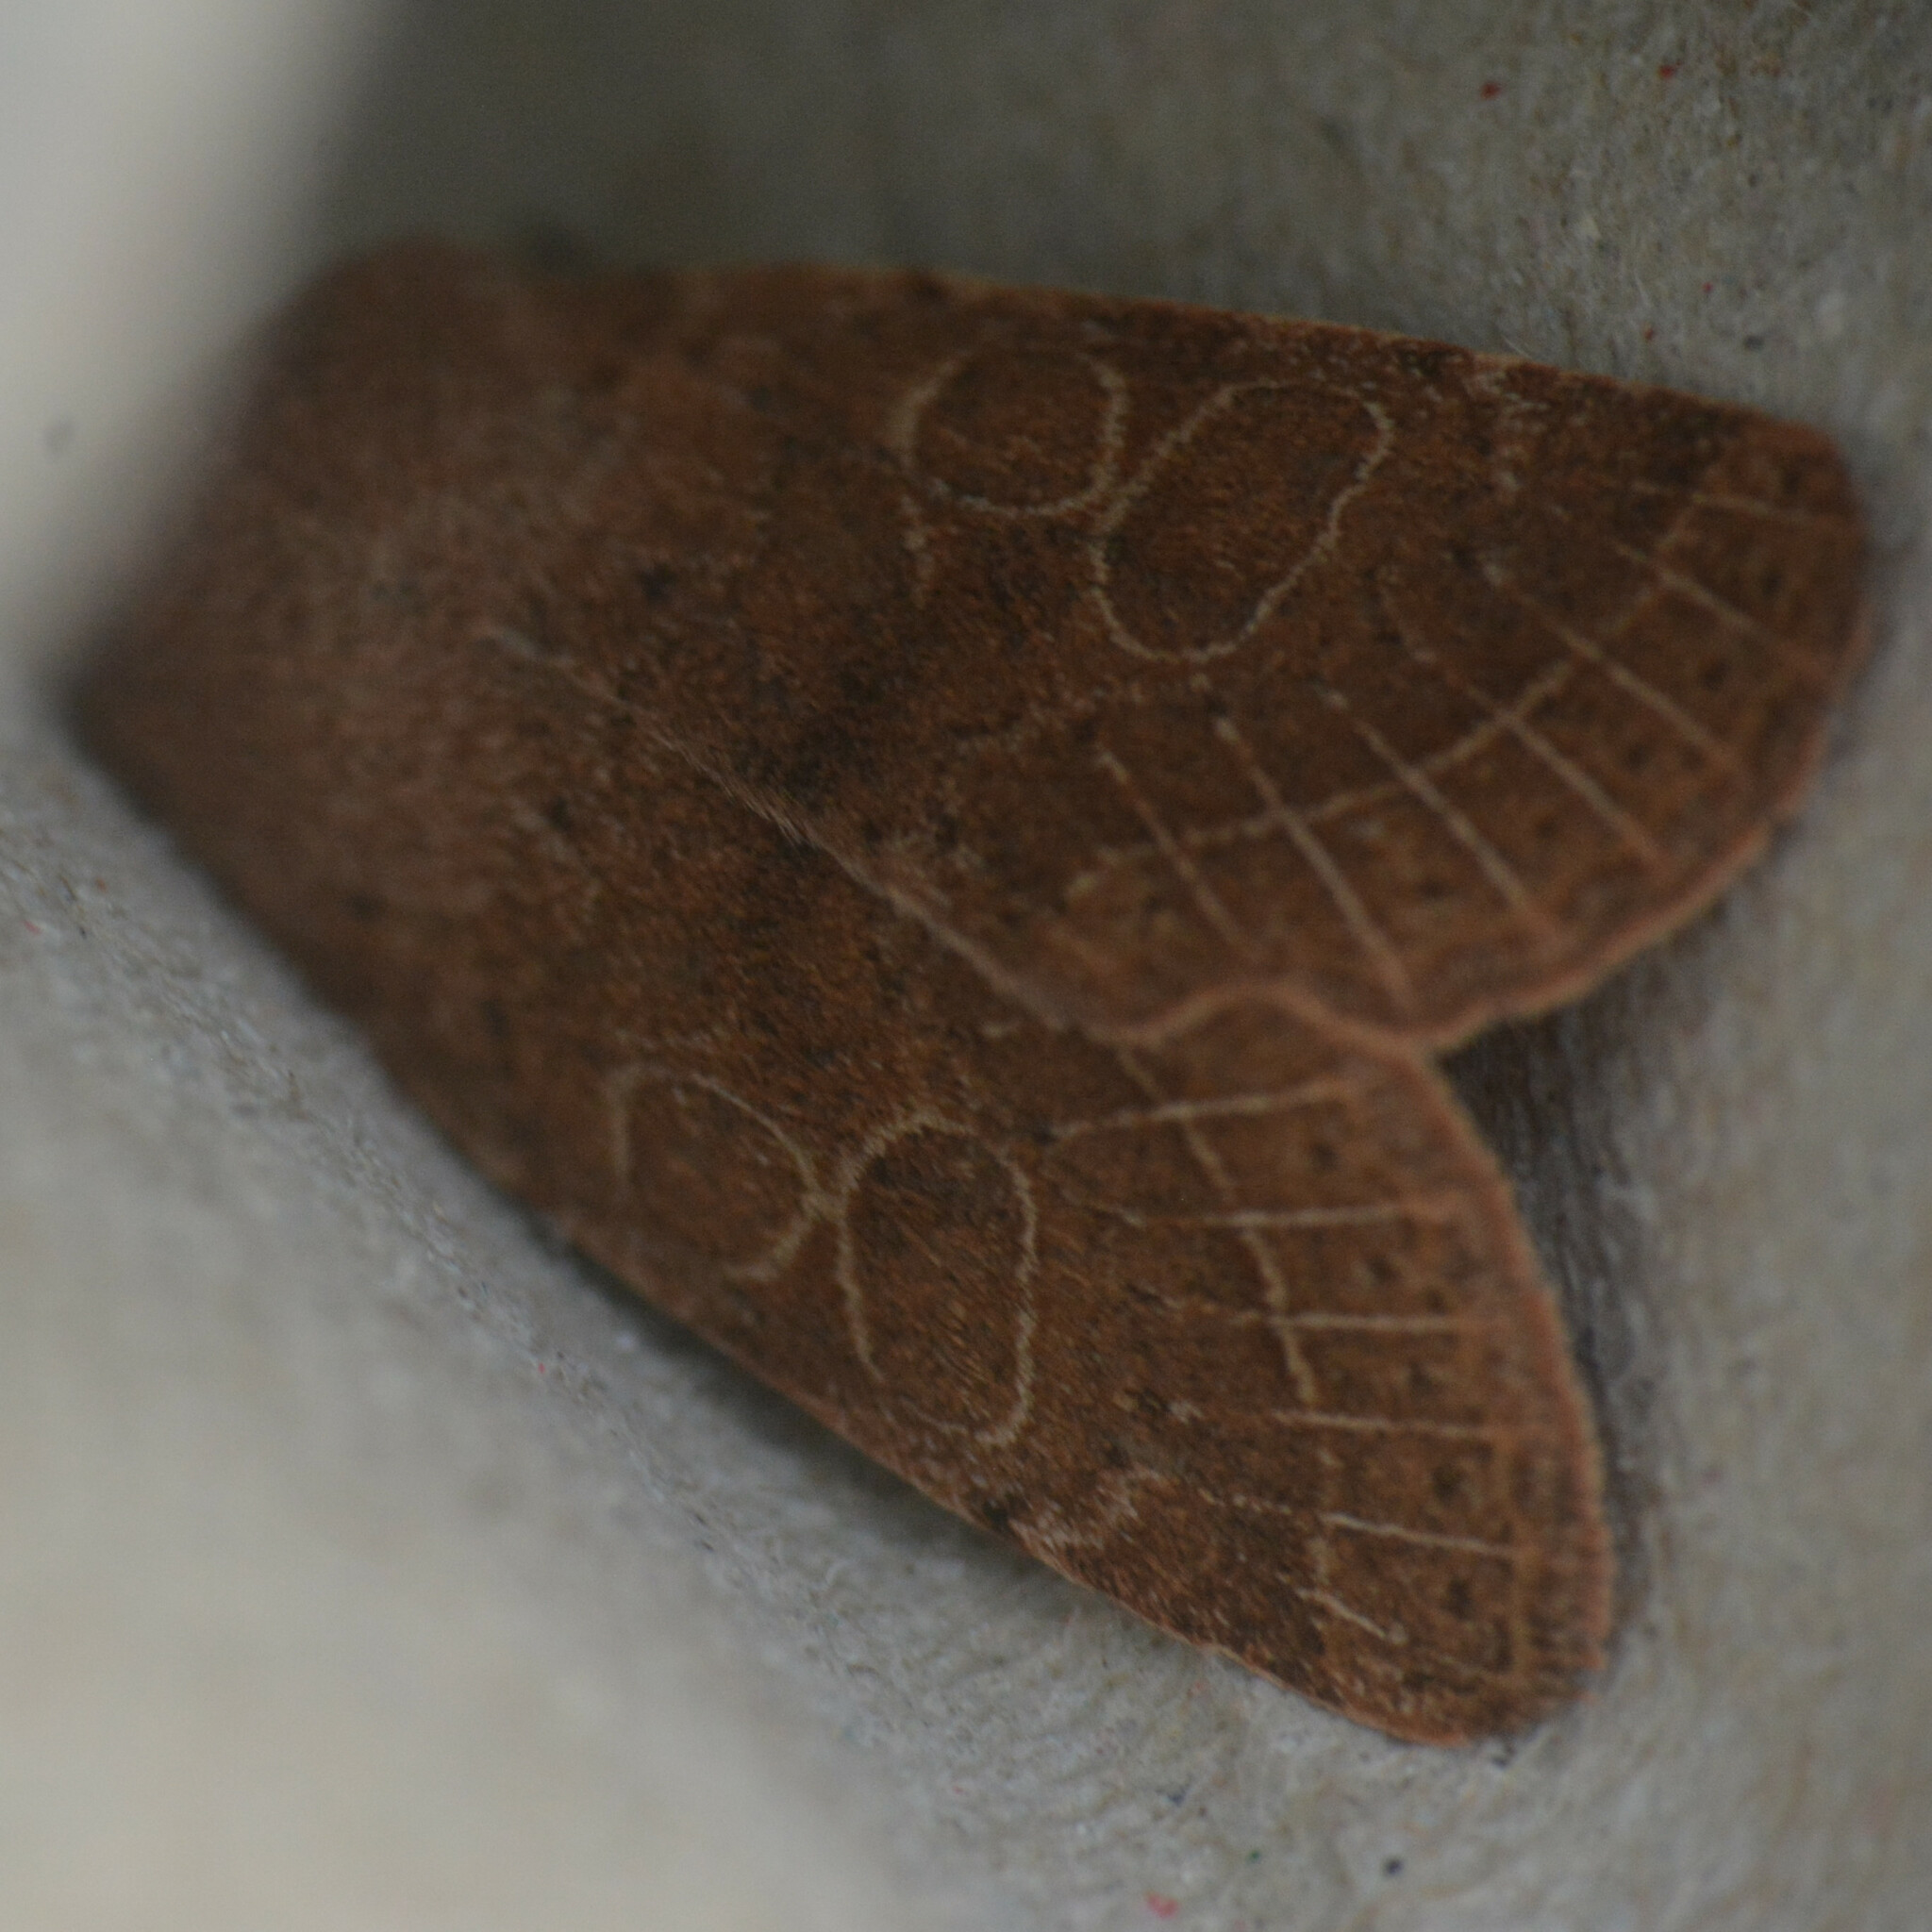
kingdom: Animalia
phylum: Arthropoda
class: Insecta
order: Lepidoptera
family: Noctuidae
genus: Orthosia
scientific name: Orthosia cerasi
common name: Common quaker
